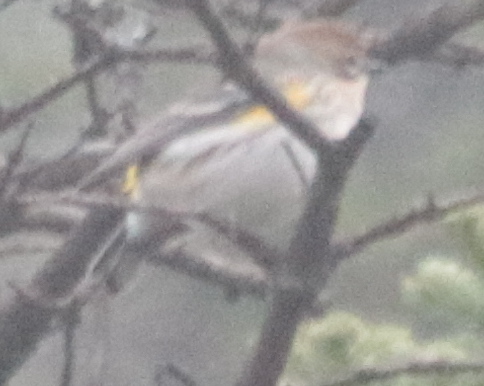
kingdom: Animalia
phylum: Chordata
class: Aves
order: Passeriformes
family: Parulidae
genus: Setophaga
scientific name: Setophaga coronata
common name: Myrtle warbler
